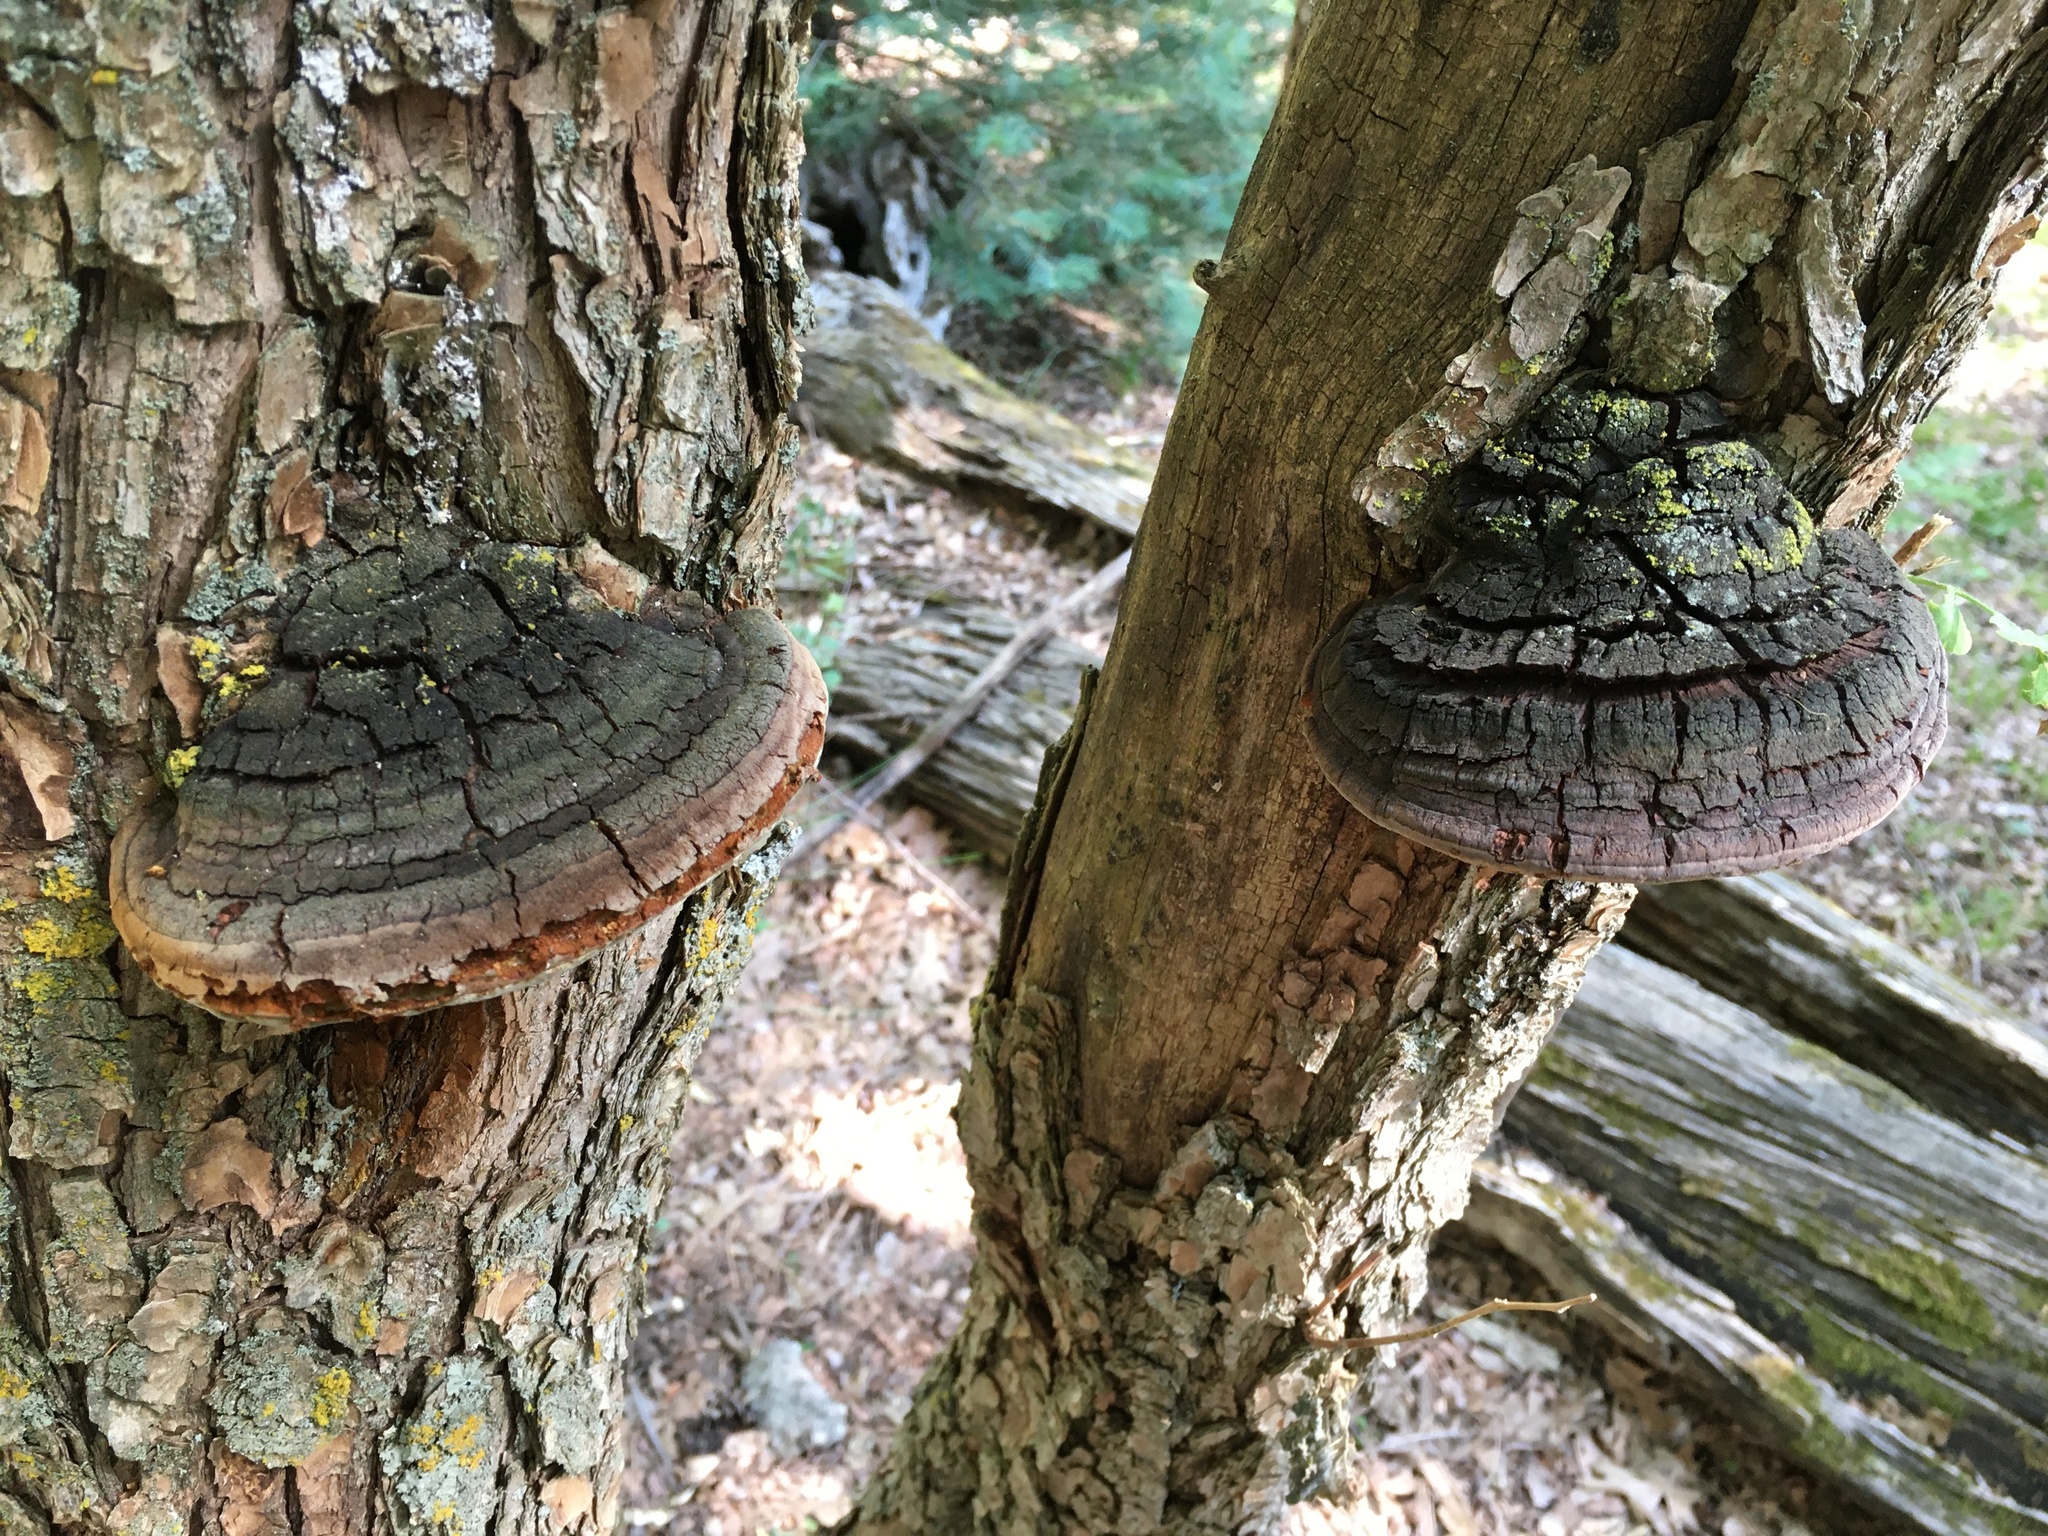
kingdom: Fungi
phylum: Basidiomycota
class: Agaricomycetes
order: Hymenochaetales
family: Hymenochaetaceae
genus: Phellinus
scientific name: Phellinus robiniae
